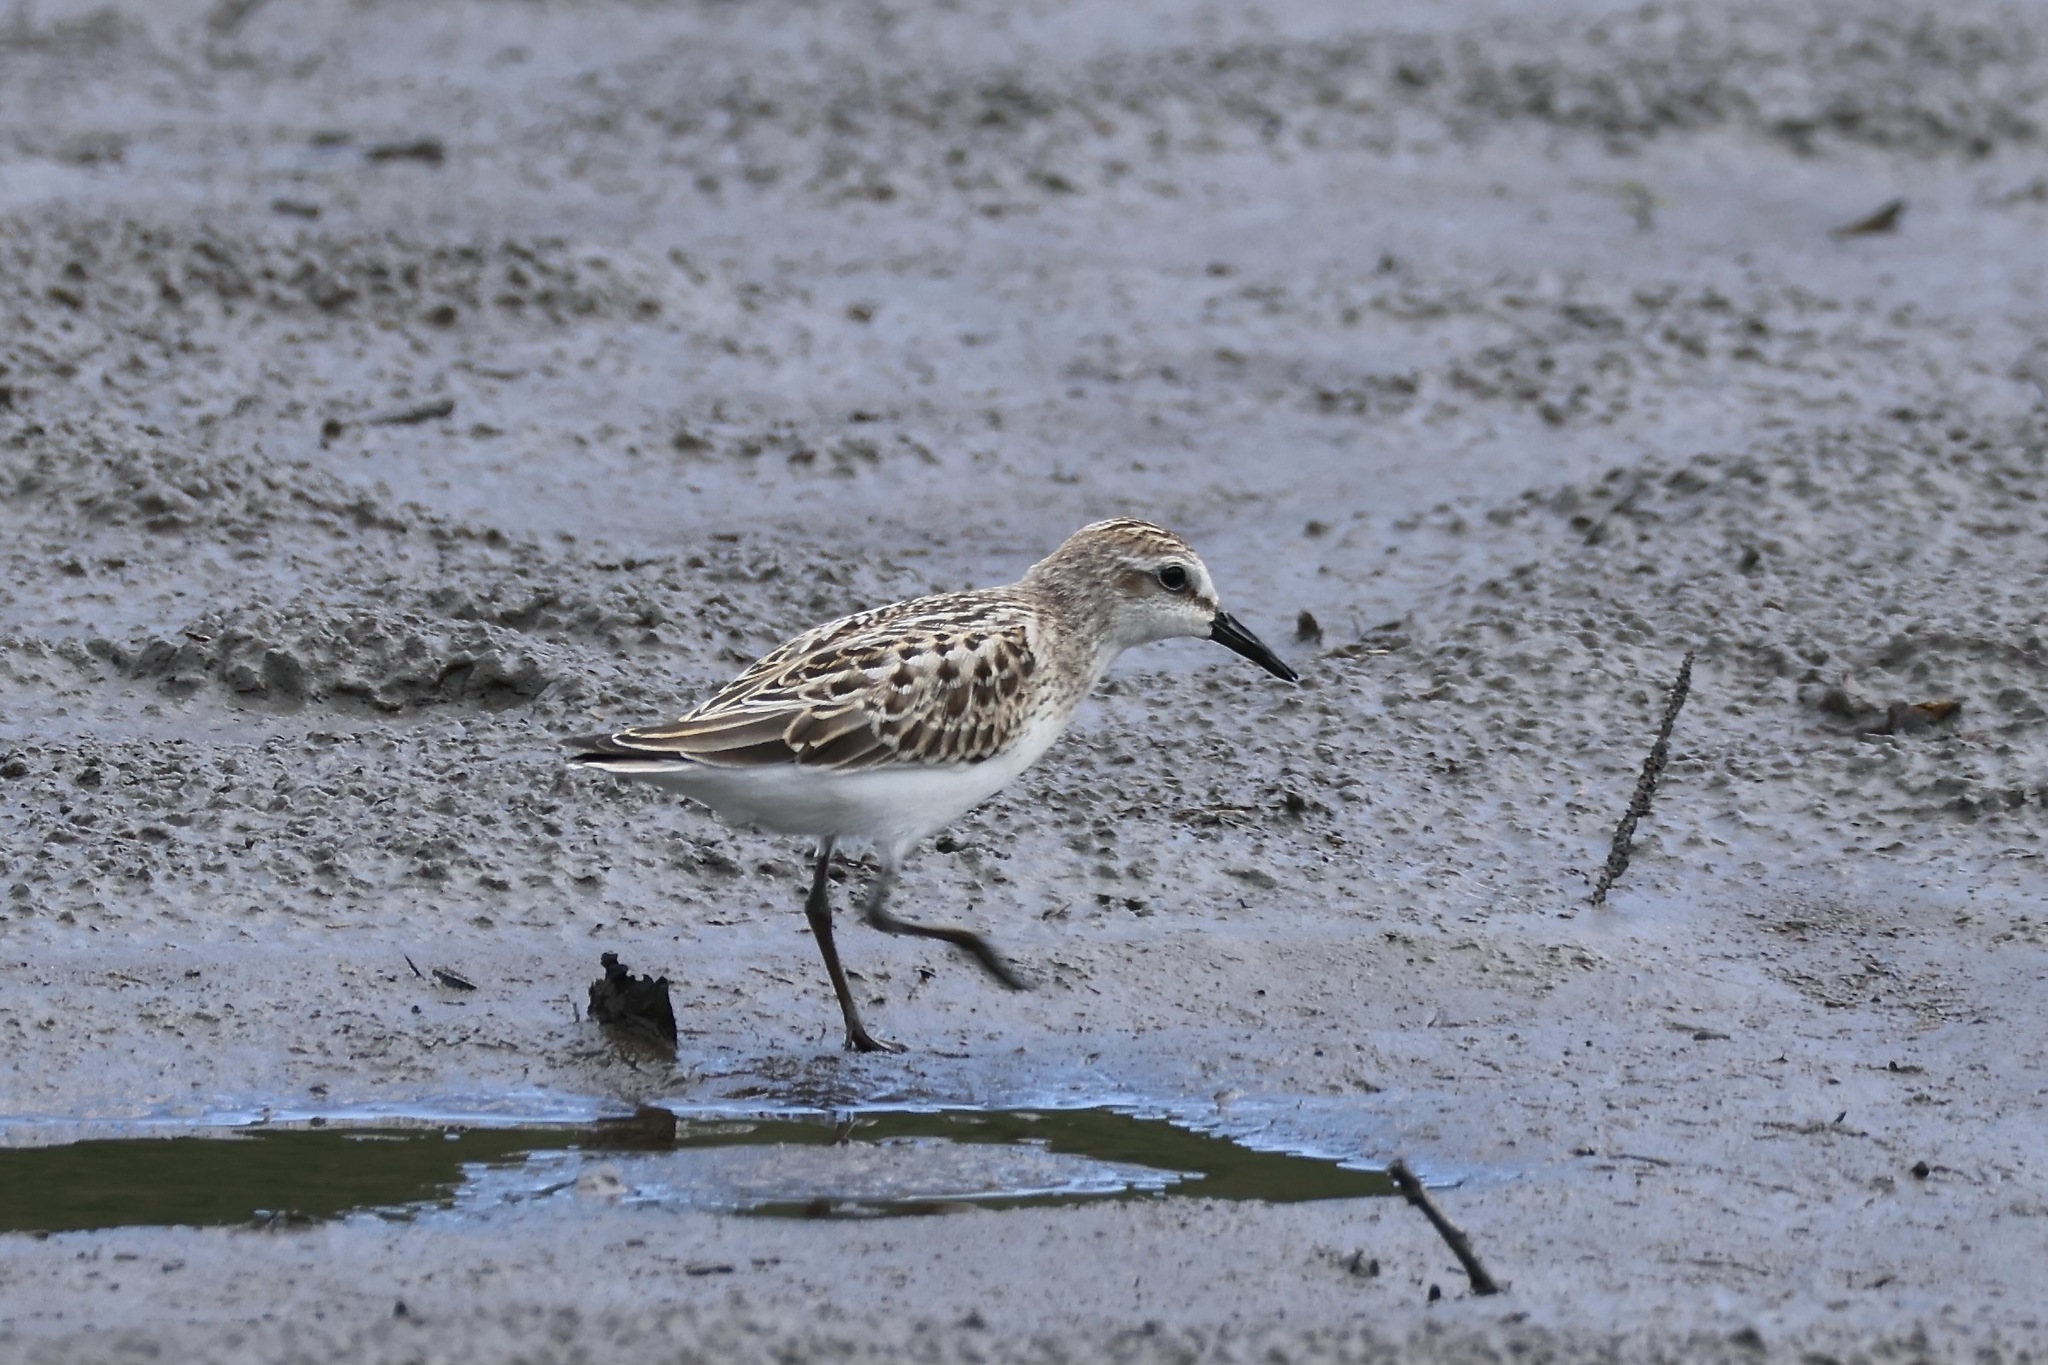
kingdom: Animalia
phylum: Chordata
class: Aves
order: Charadriiformes
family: Scolopacidae
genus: Calidris
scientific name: Calidris pusilla
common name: Semipalmated sandpiper
